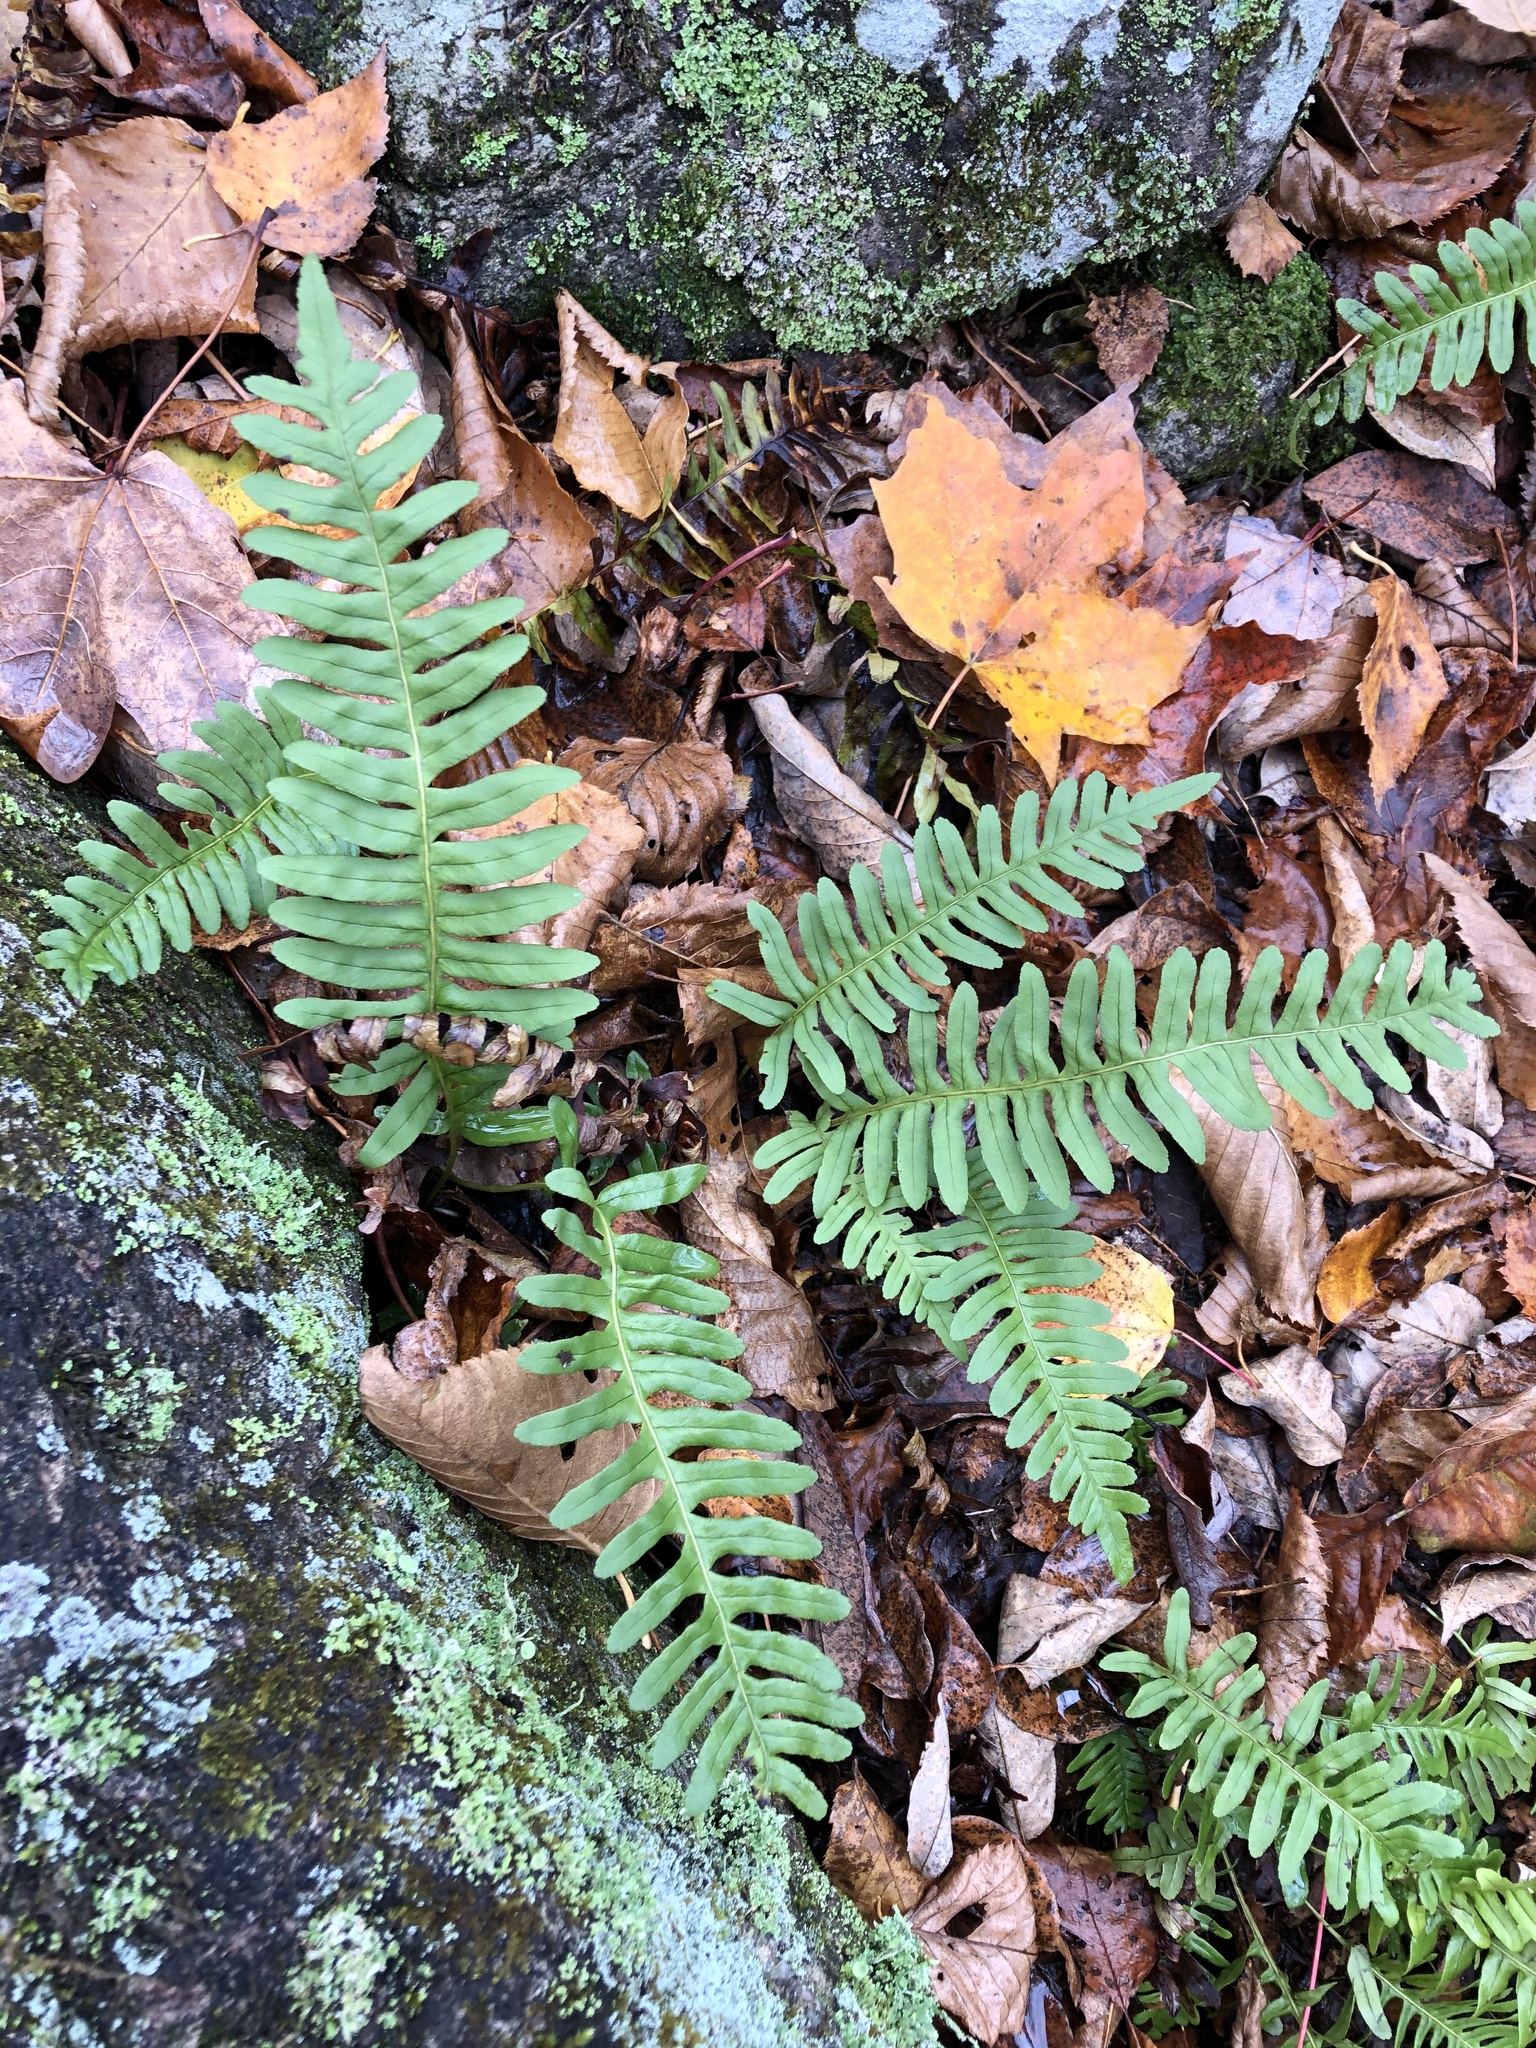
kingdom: Plantae
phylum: Tracheophyta
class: Polypodiopsida
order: Polypodiales
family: Polypodiaceae
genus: Polypodium
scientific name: Polypodium virginianum
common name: American wall fern
